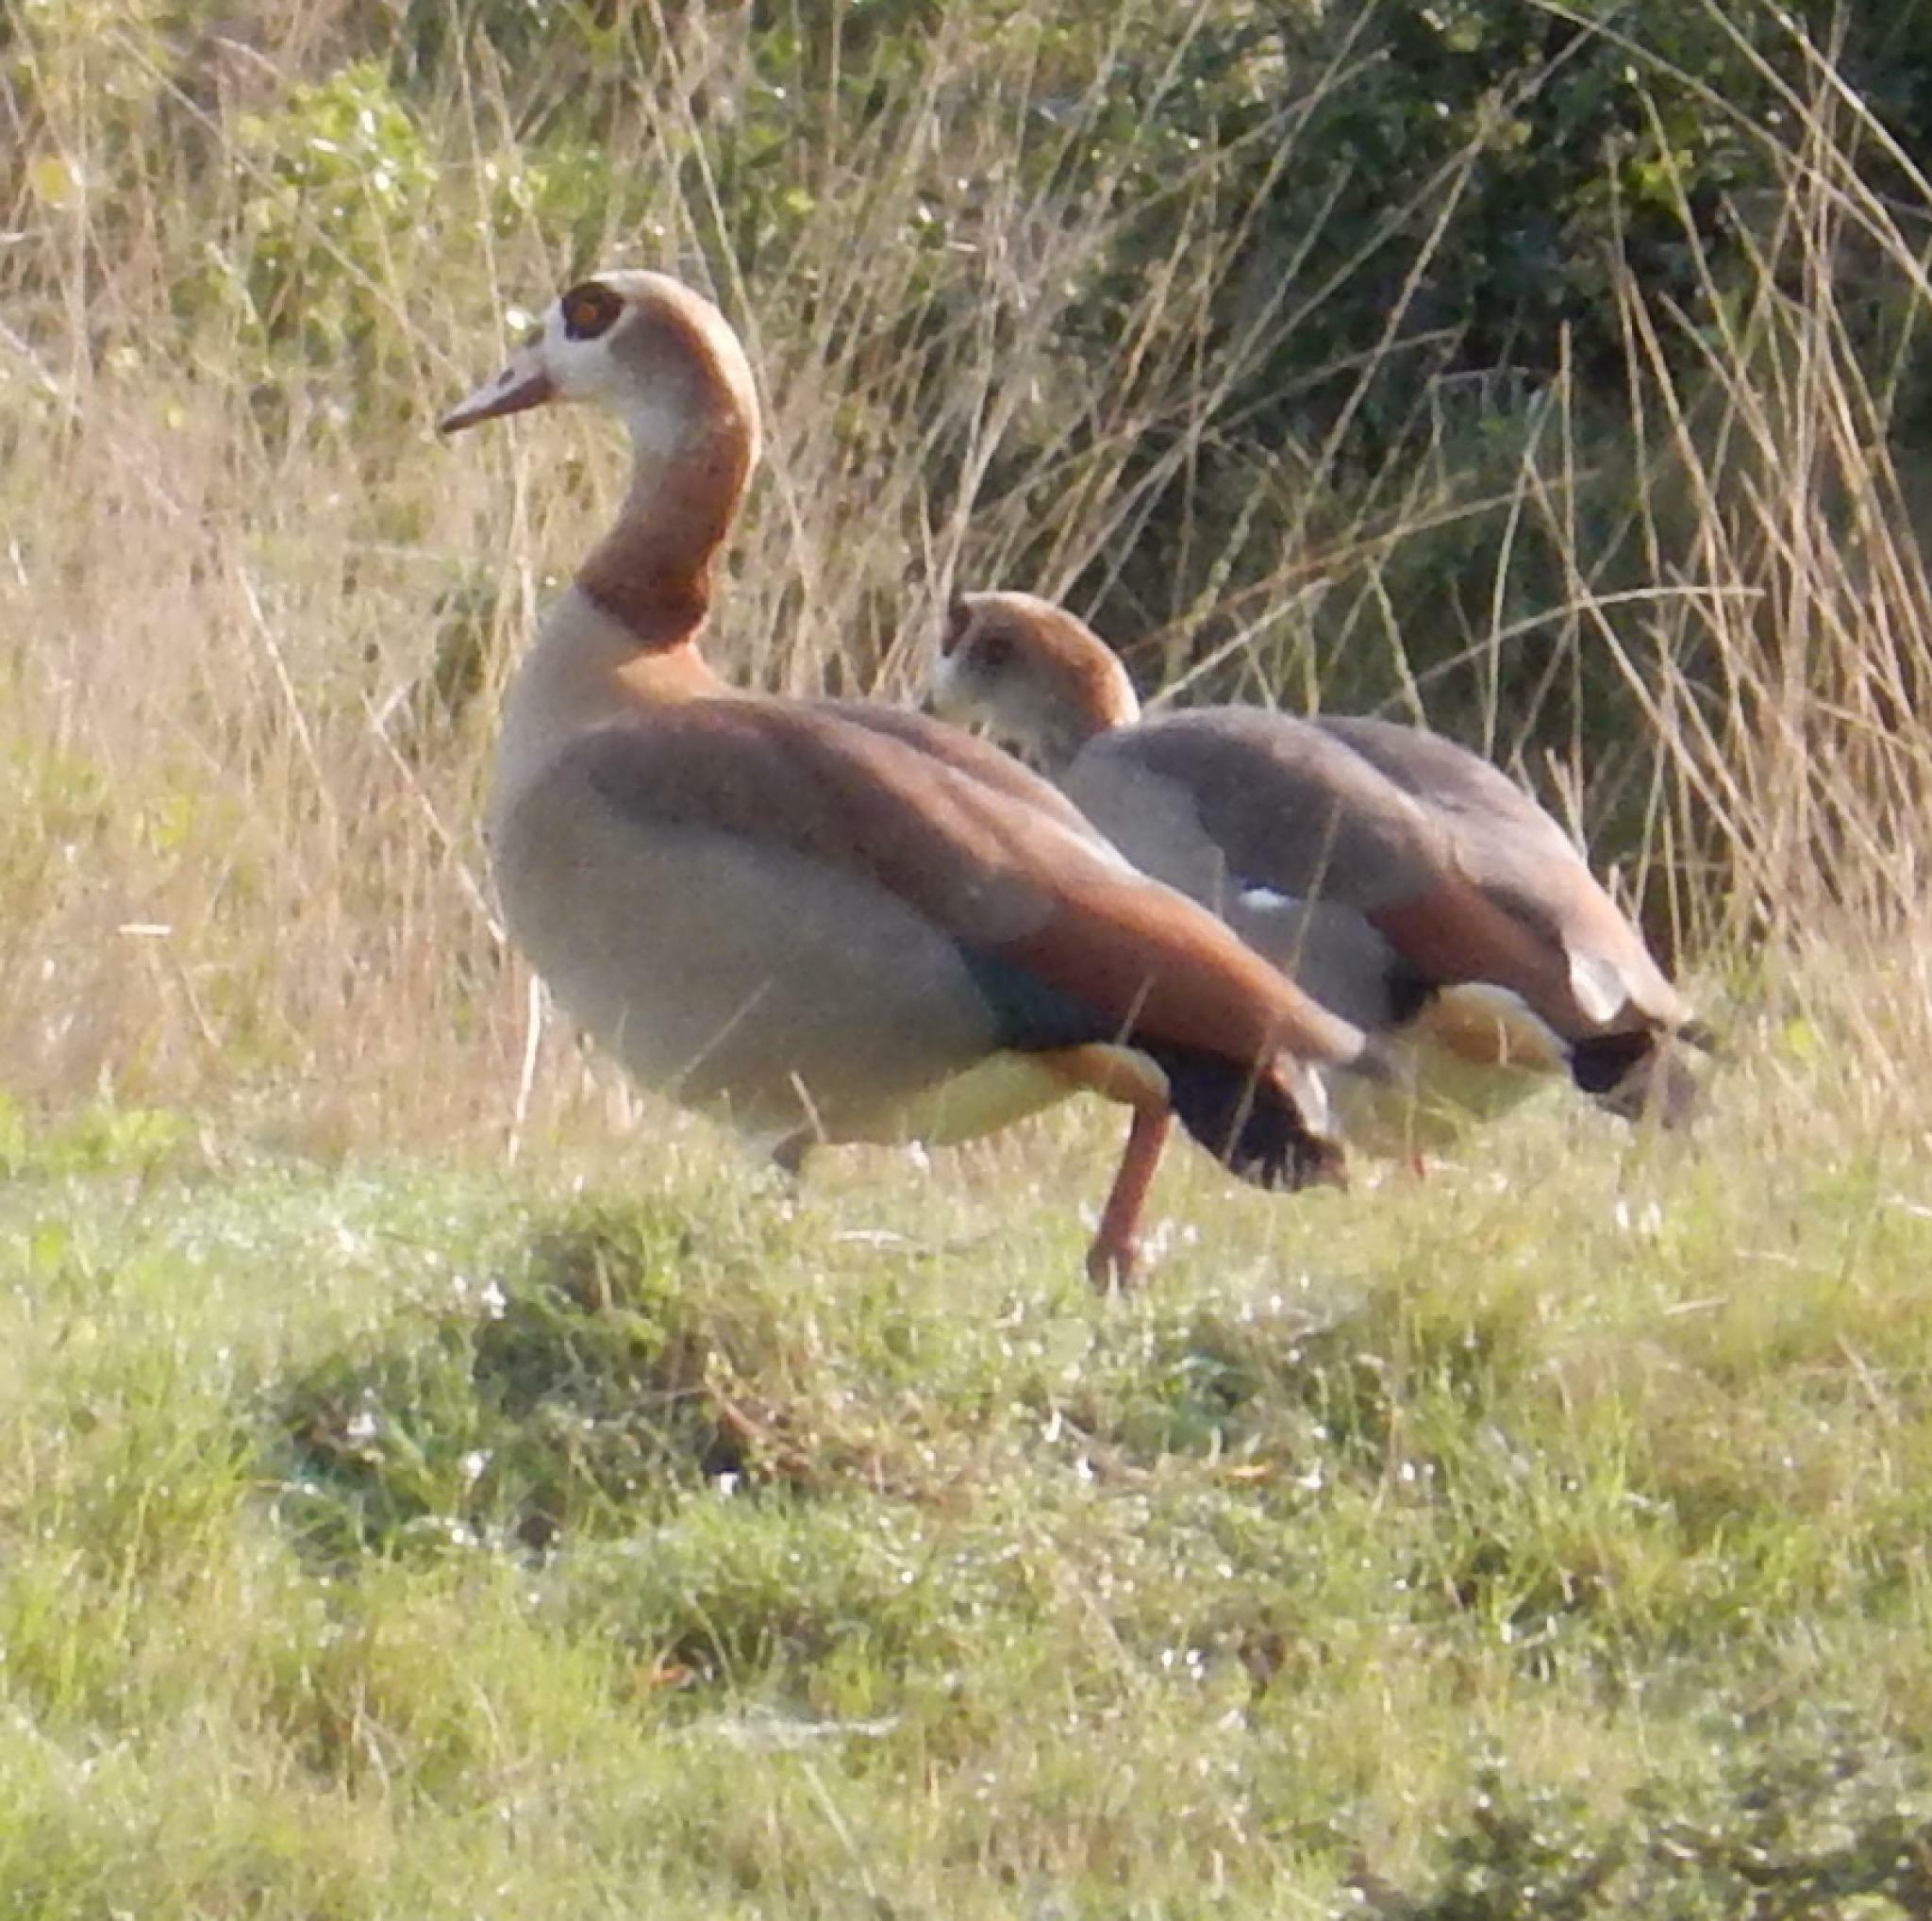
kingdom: Animalia
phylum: Chordata
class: Aves
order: Anseriformes
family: Anatidae
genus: Alopochen
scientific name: Alopochen aegyptiaca
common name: Egyptian goose
